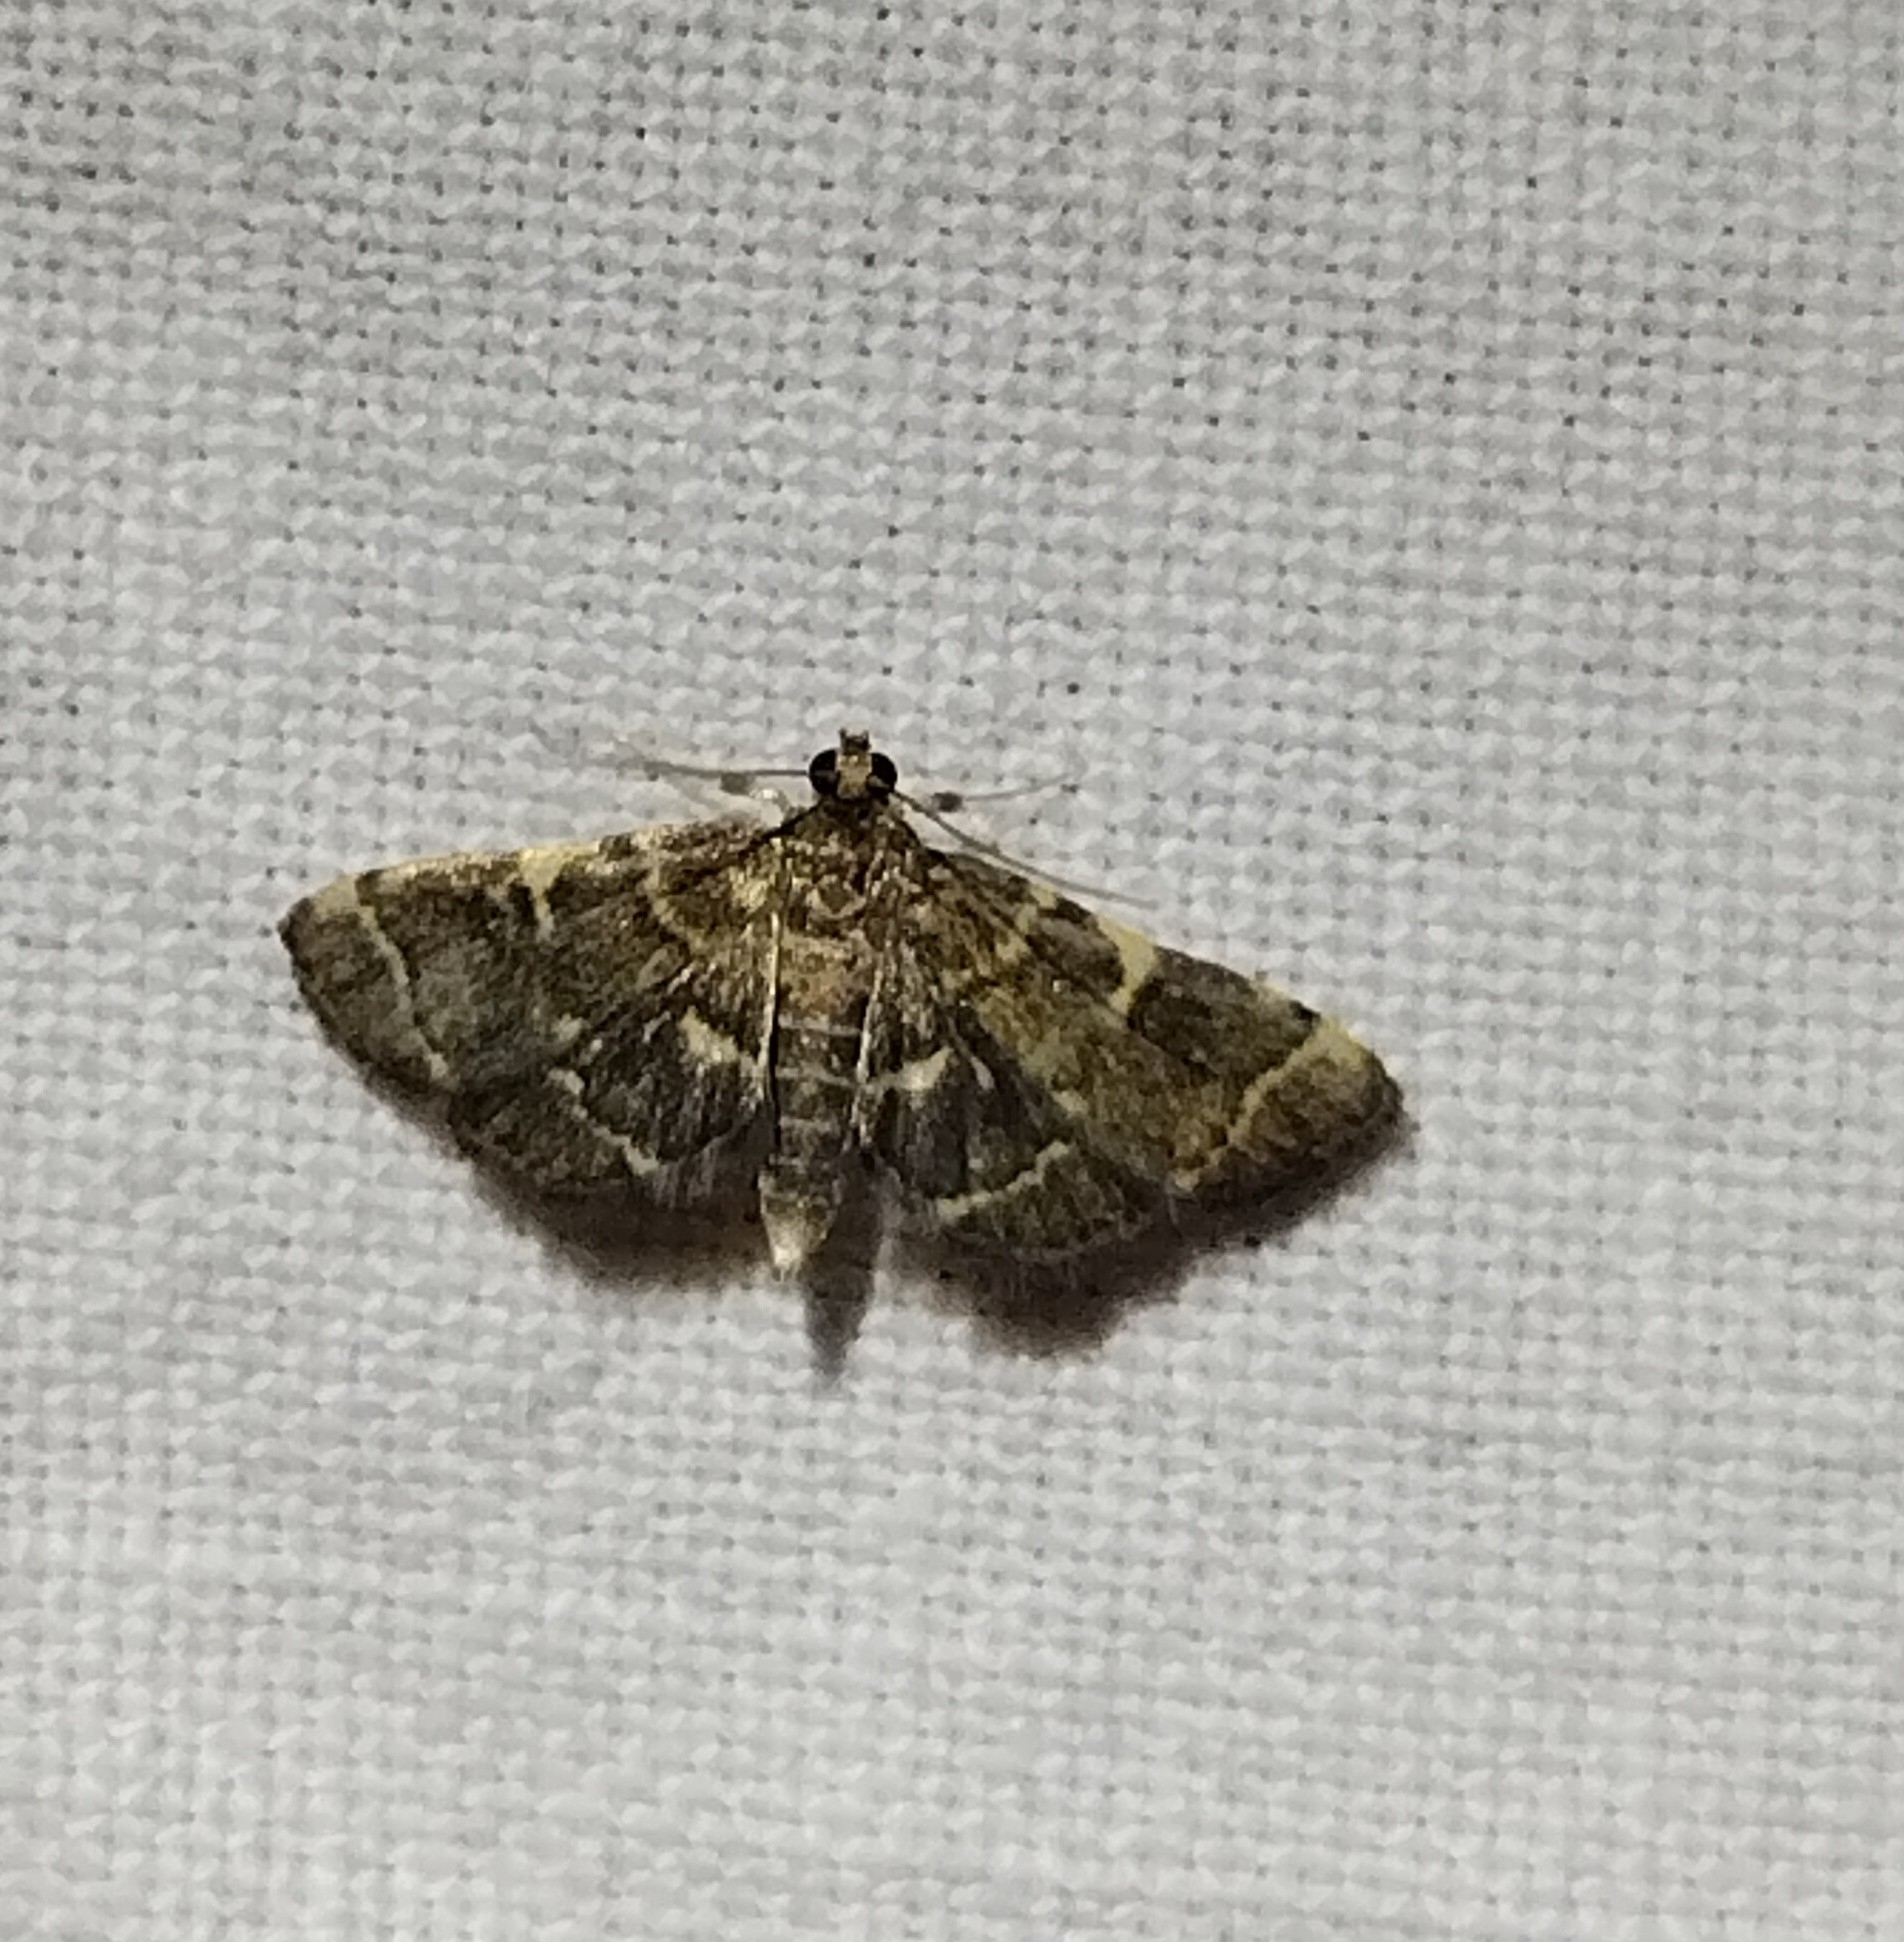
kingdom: Animalia
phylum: Arthropoda
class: Insecta
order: Lepidoptera
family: Crambidae
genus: Anageshna
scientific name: Anageshna primordialis
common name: Yellow-spotted webworm moth
